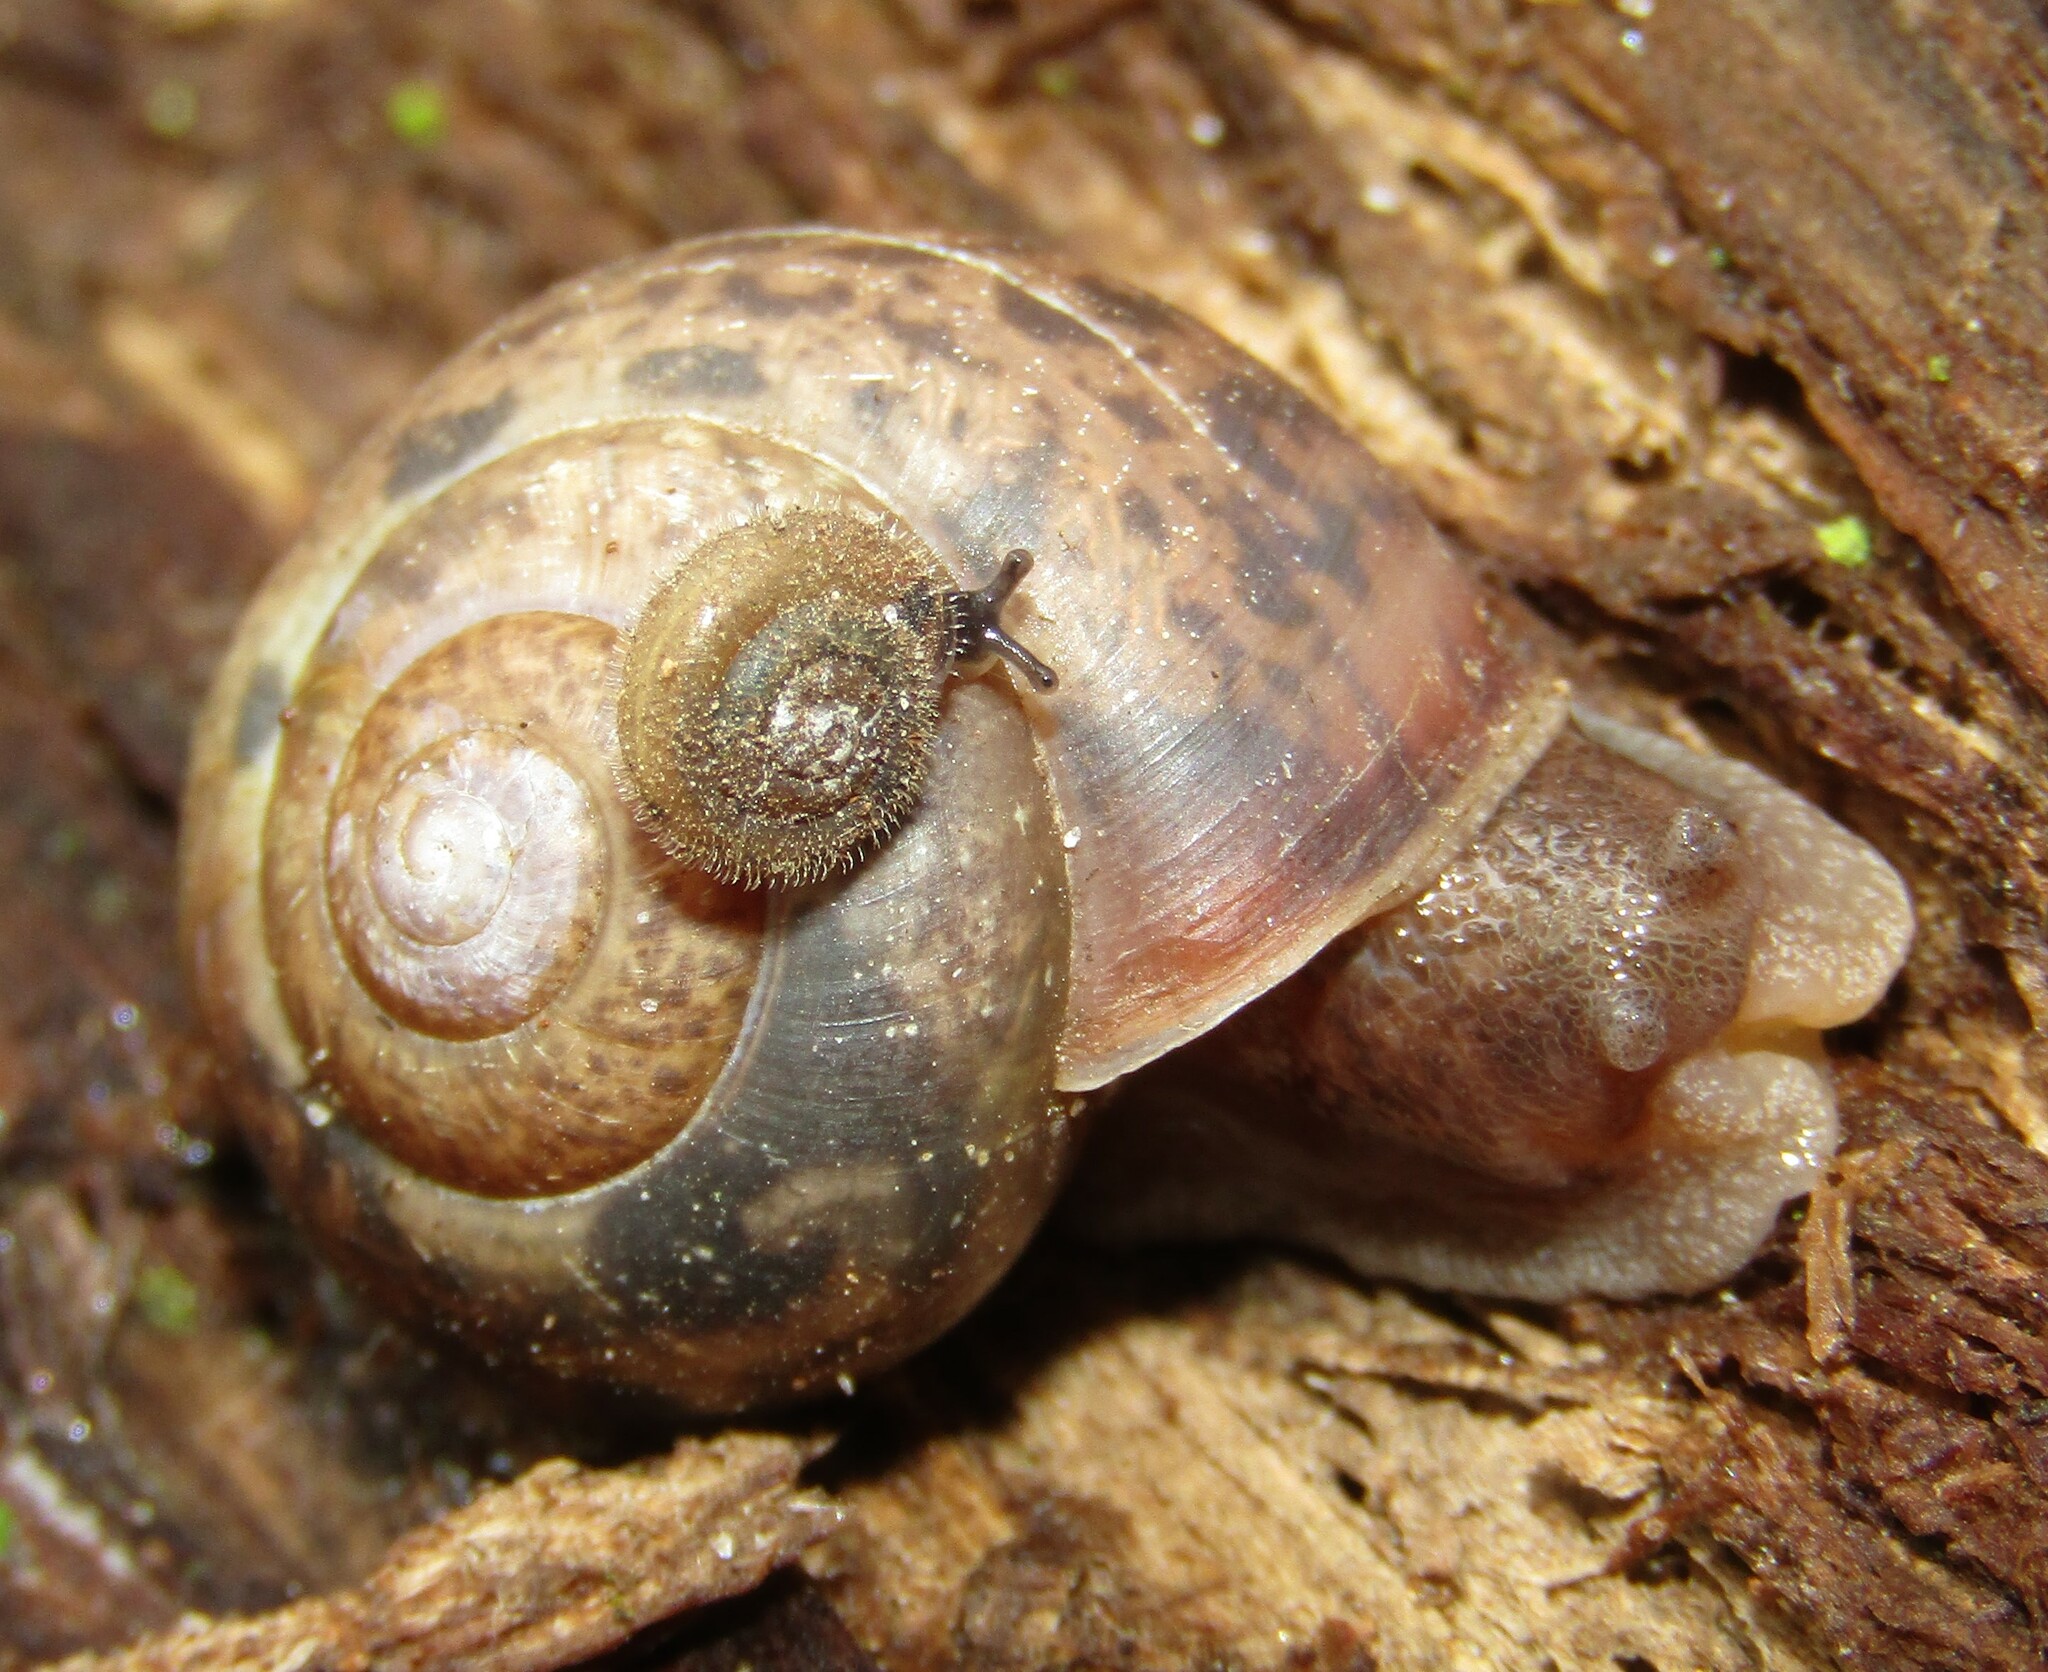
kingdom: Animalia
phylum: Mollusca
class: Gastropoda
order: Stylommatophora
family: Camaenidae
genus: Fruticicola
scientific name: Fruticicola fruticum
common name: Bush snail
